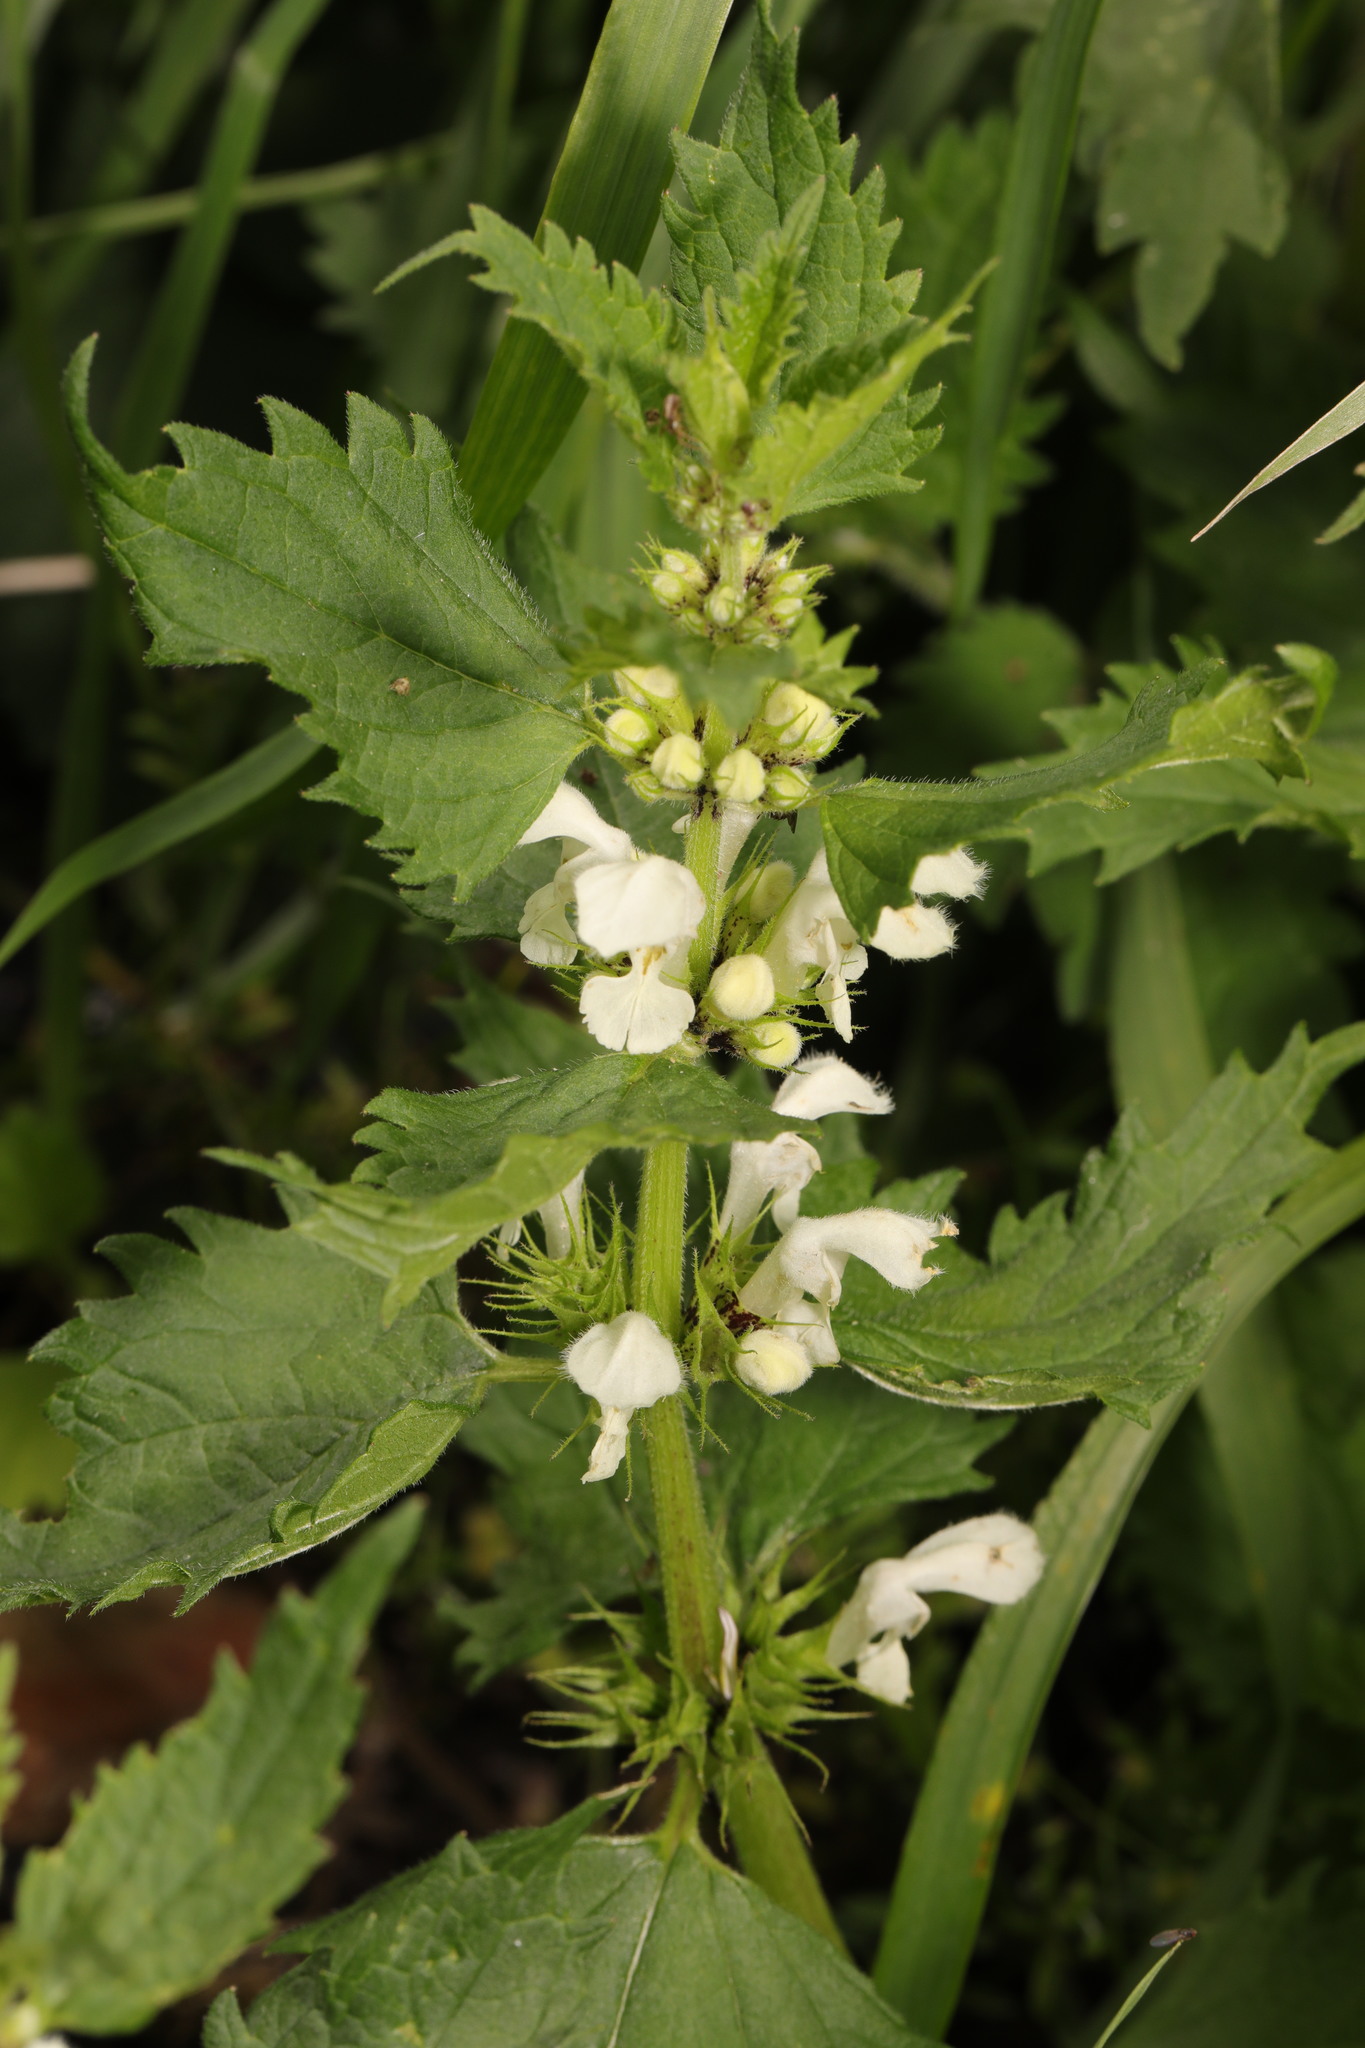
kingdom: Plantae
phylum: Tracheophyta
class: Magnoliopsida
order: Lamiales
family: Lamiaceae
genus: Lamium
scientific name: Lamium album
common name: White dead-nettle
